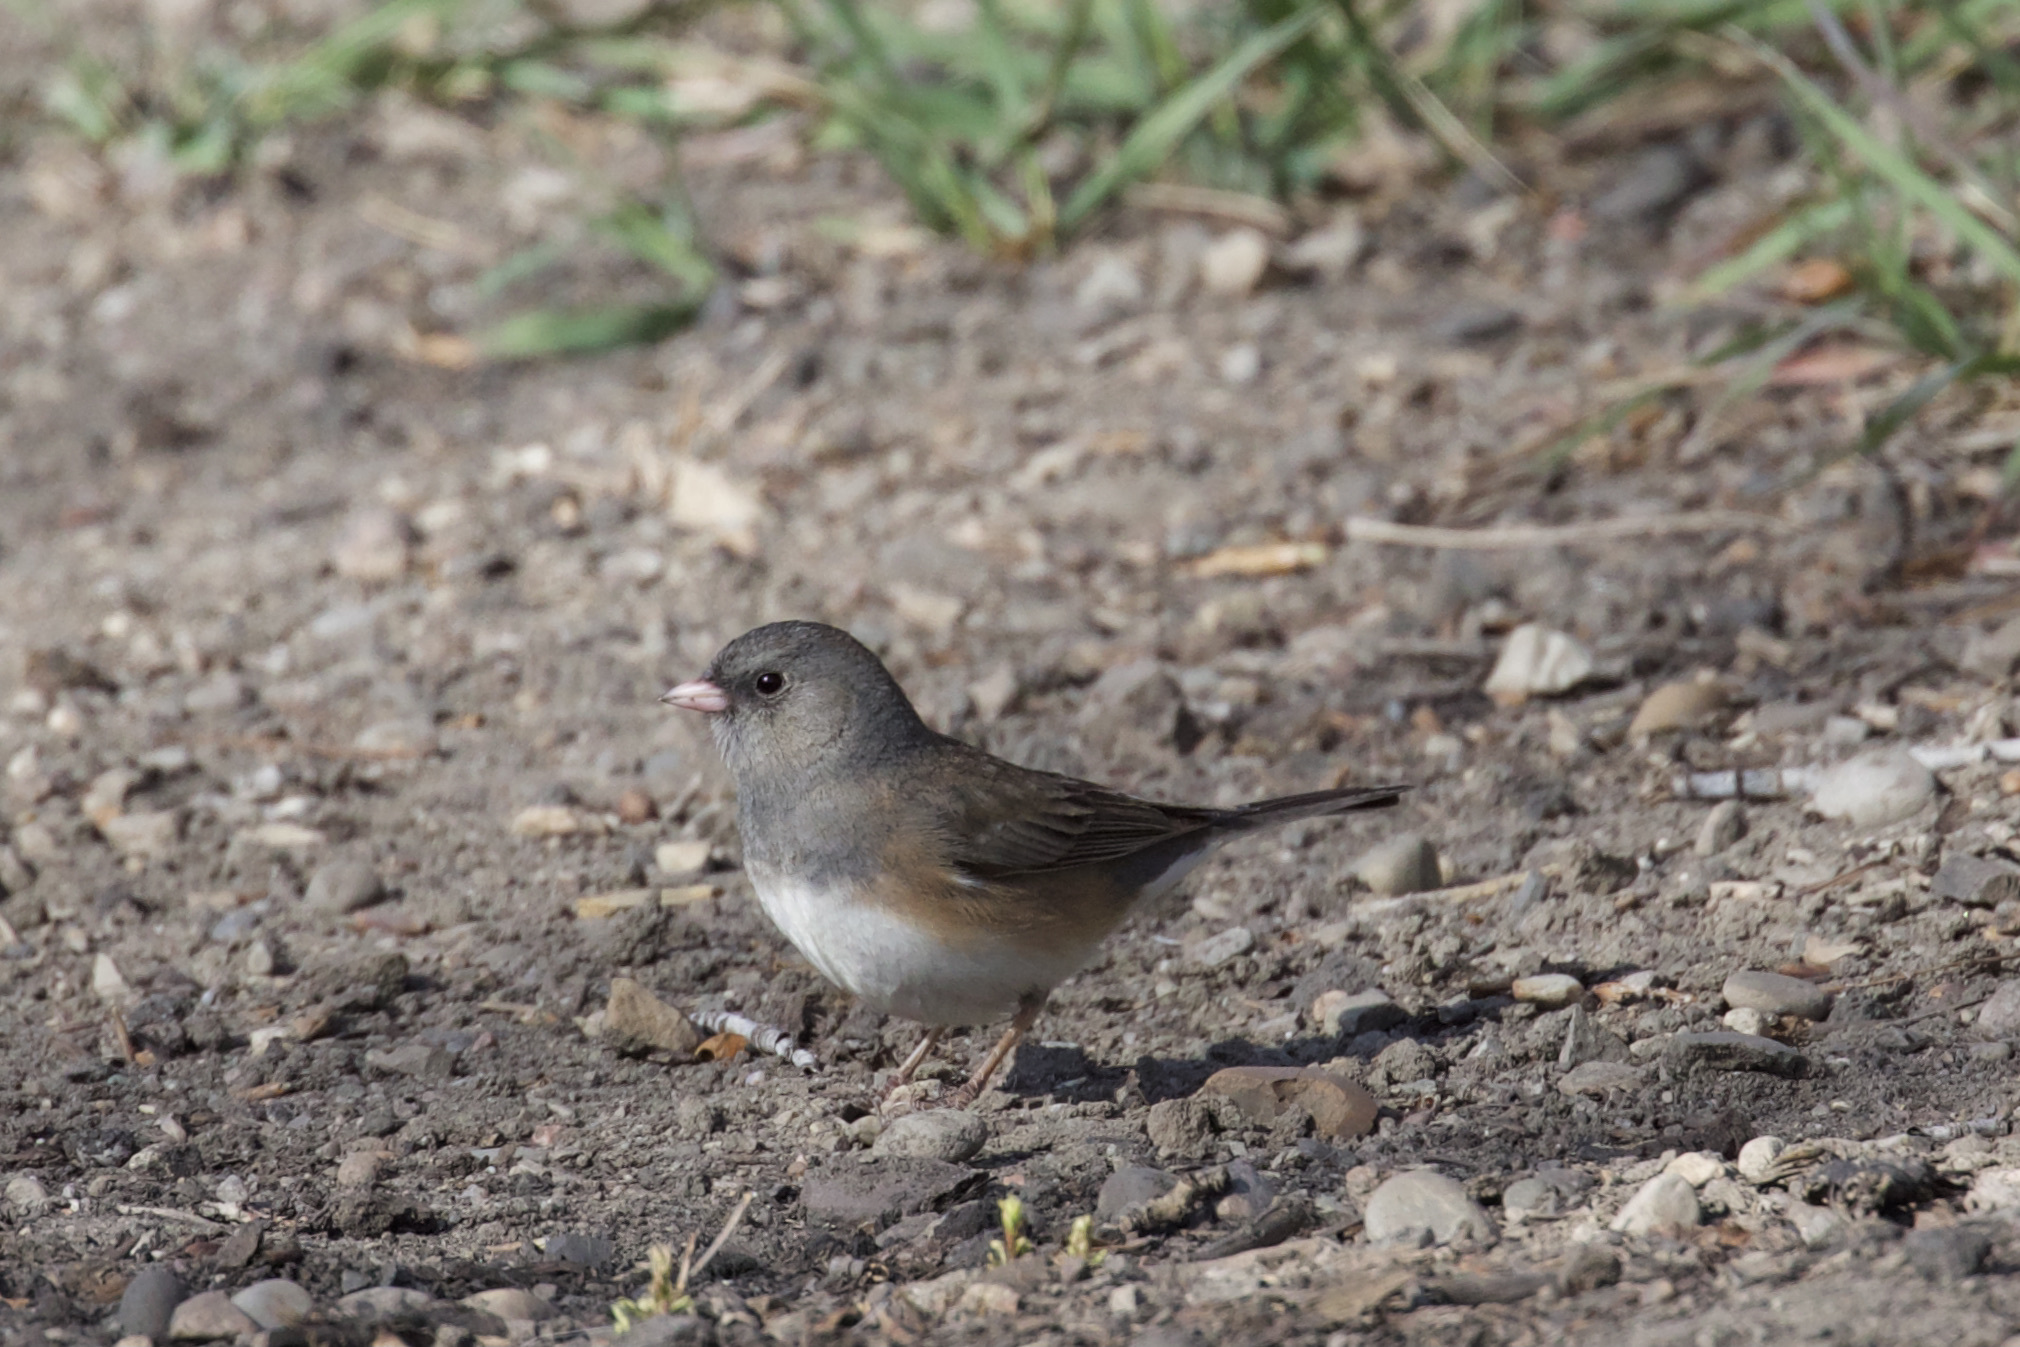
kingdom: Animalia
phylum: Chordata
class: Aves
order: Passeriformes
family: Passerellidae
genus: Junco
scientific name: Junco hyemalis
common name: Dark-eyed junco
